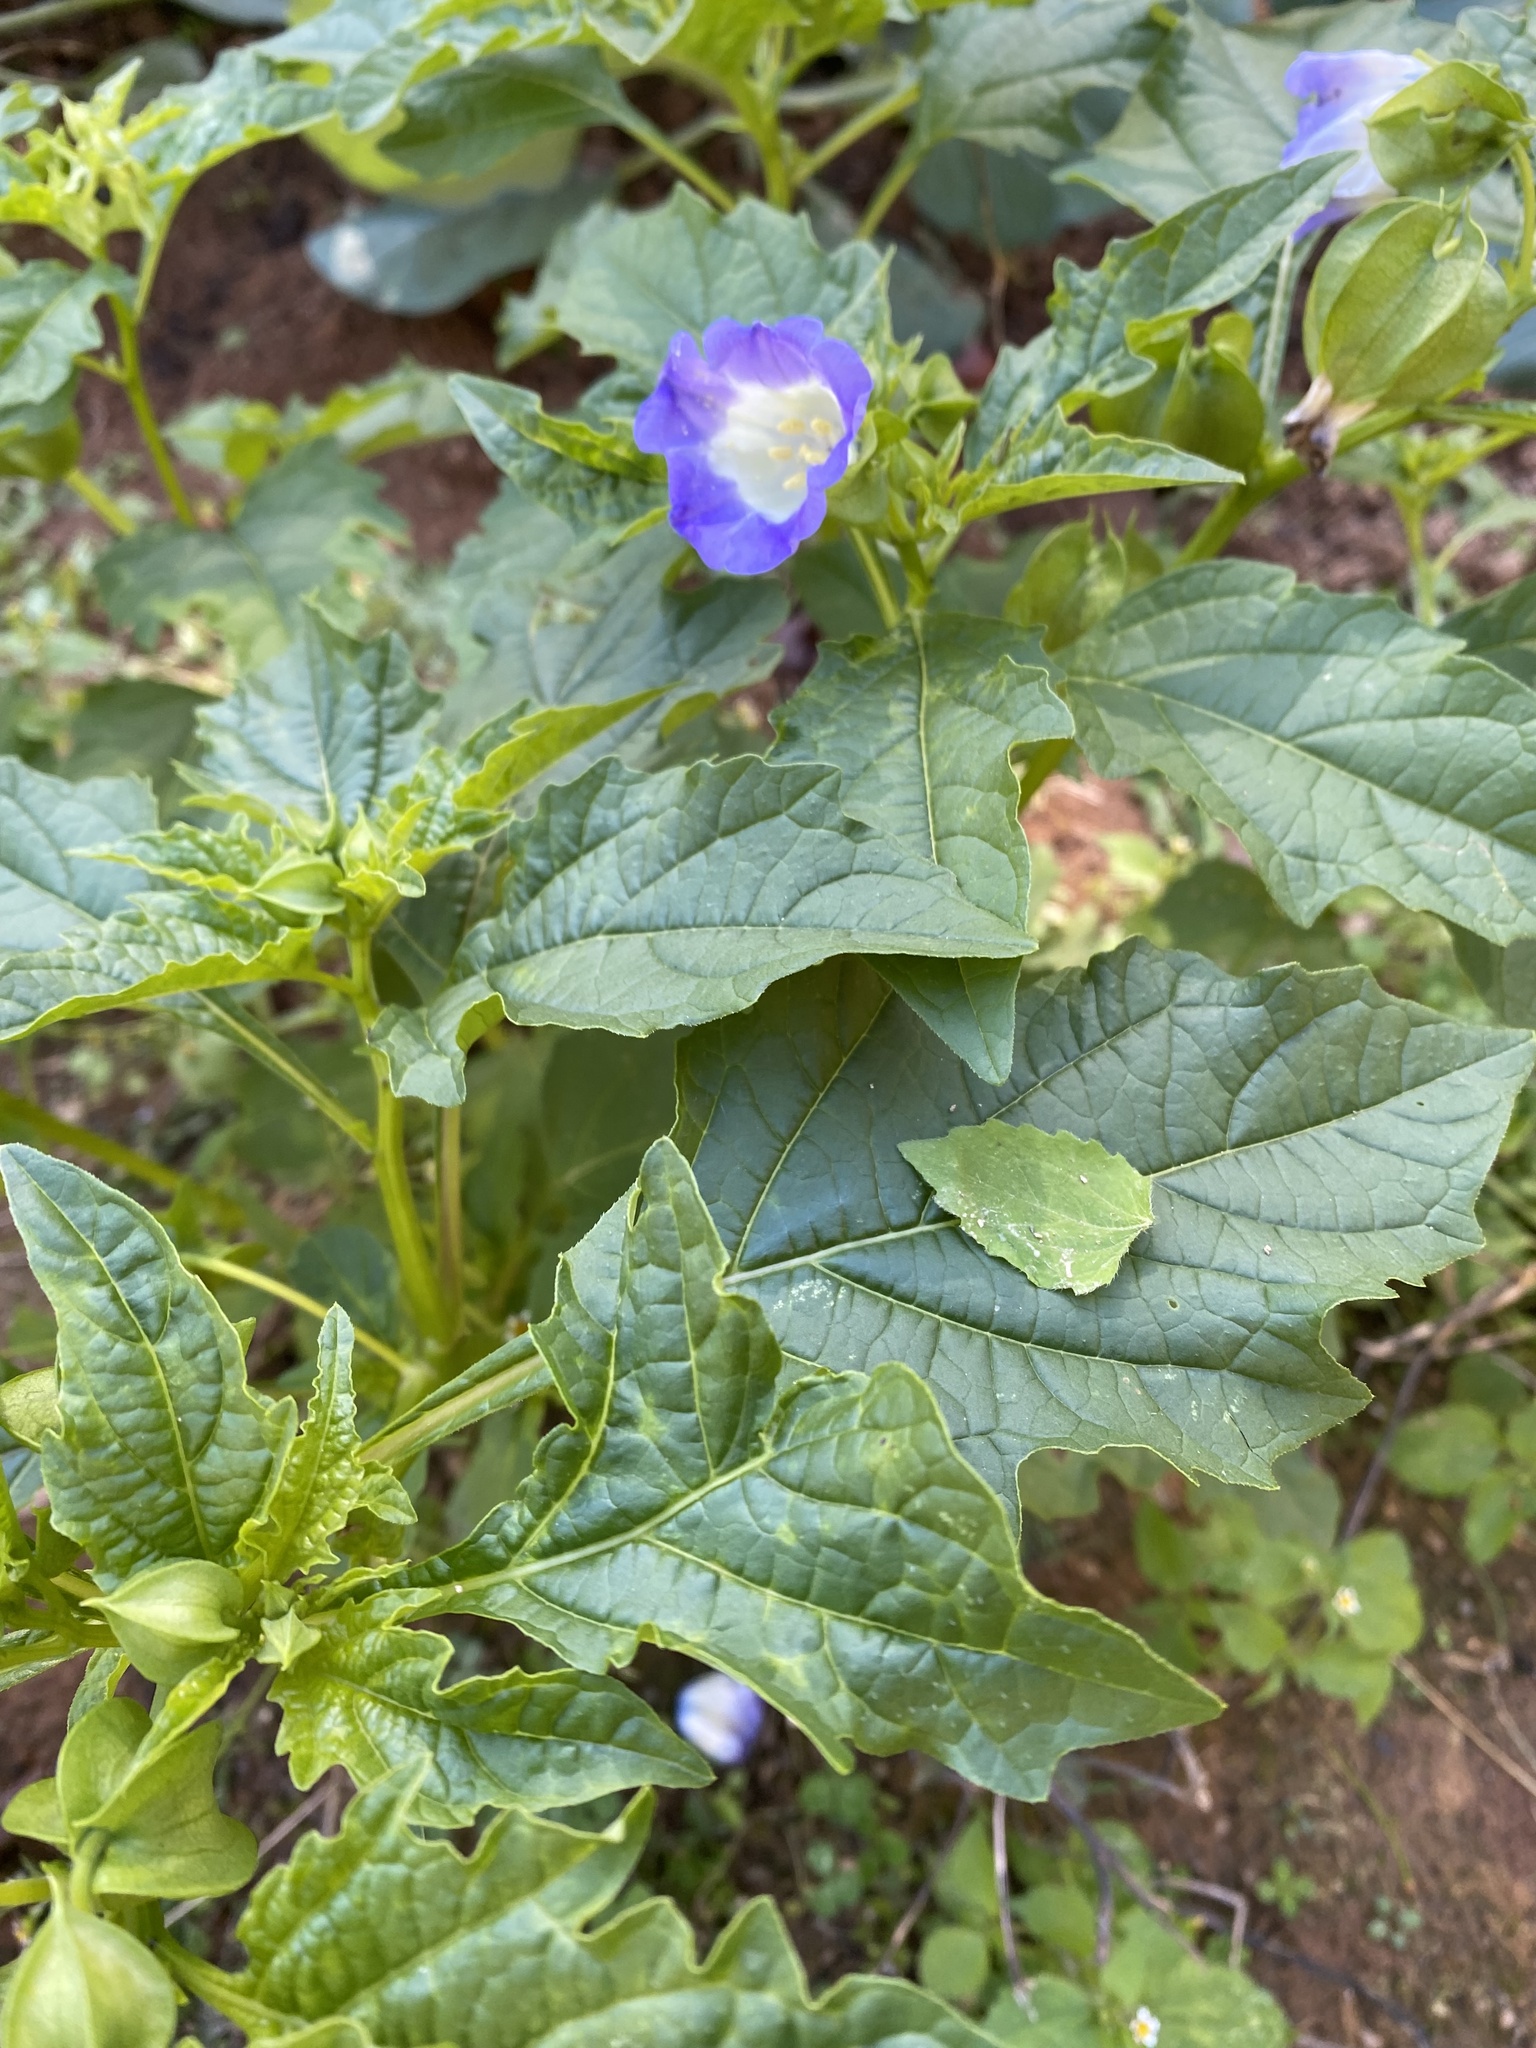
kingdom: Plantae
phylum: Tracheophyta
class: Magnoliopsida
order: Solanales
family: Solanaceae
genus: Nicandra
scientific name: Nicandra physalodes
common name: Apple-of-peru
